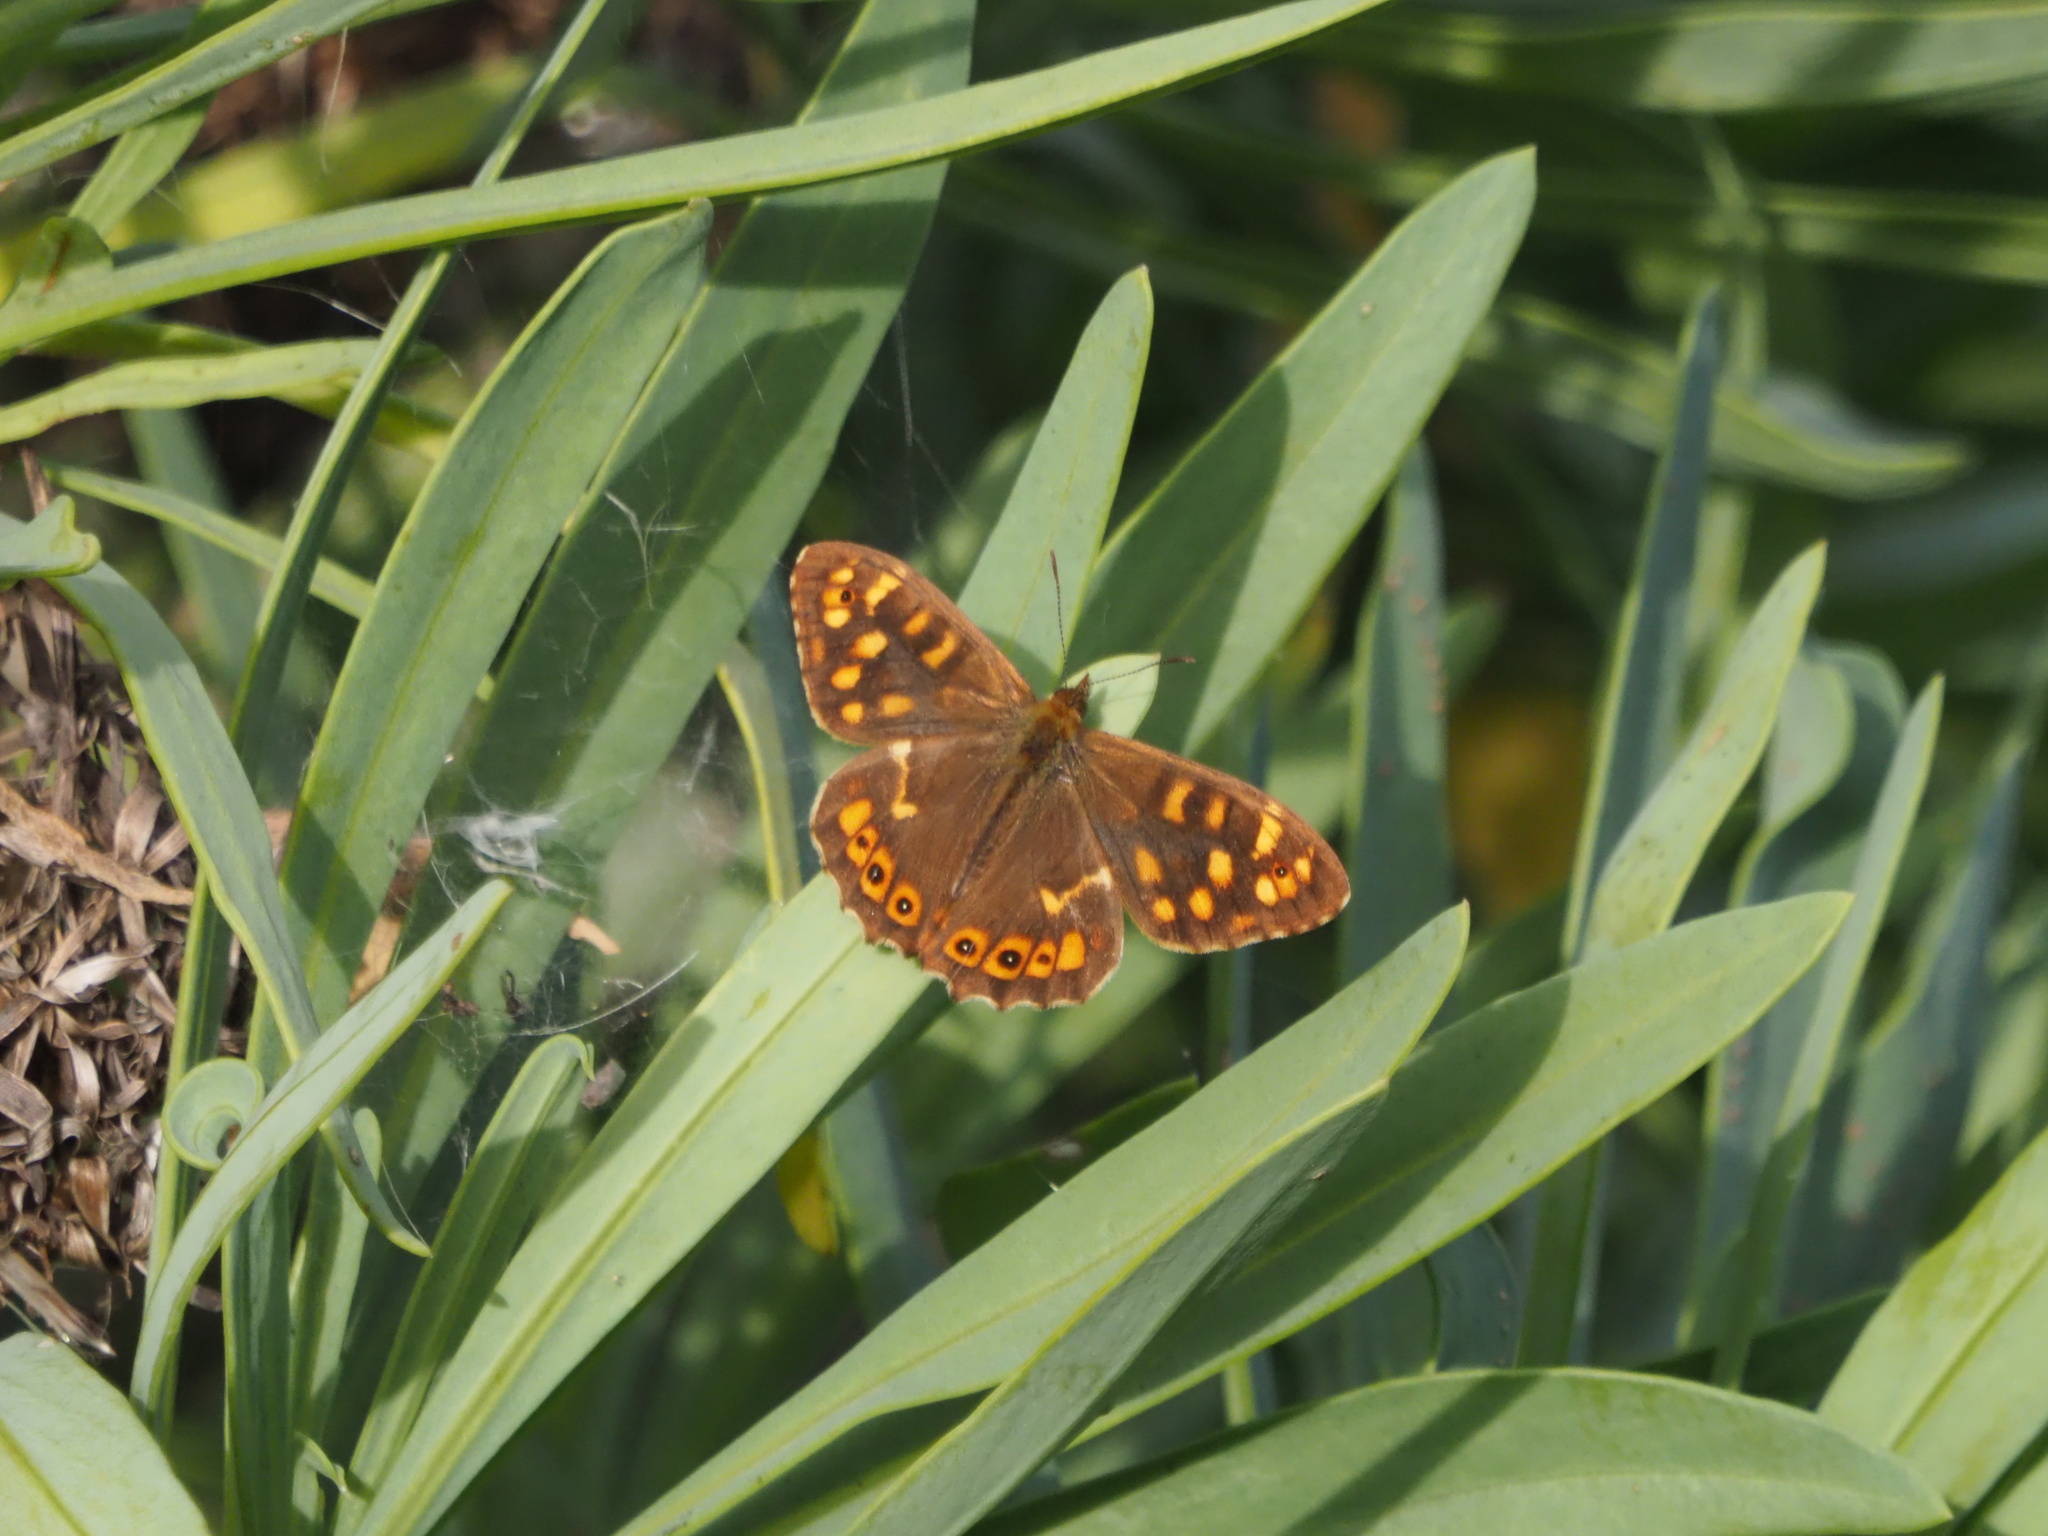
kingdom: Animalia
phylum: Arthropoda
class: Insecta
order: Lepidoptera
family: Nymphalidae
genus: Pararge
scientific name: Pararge aegeria
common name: Speckled wood
